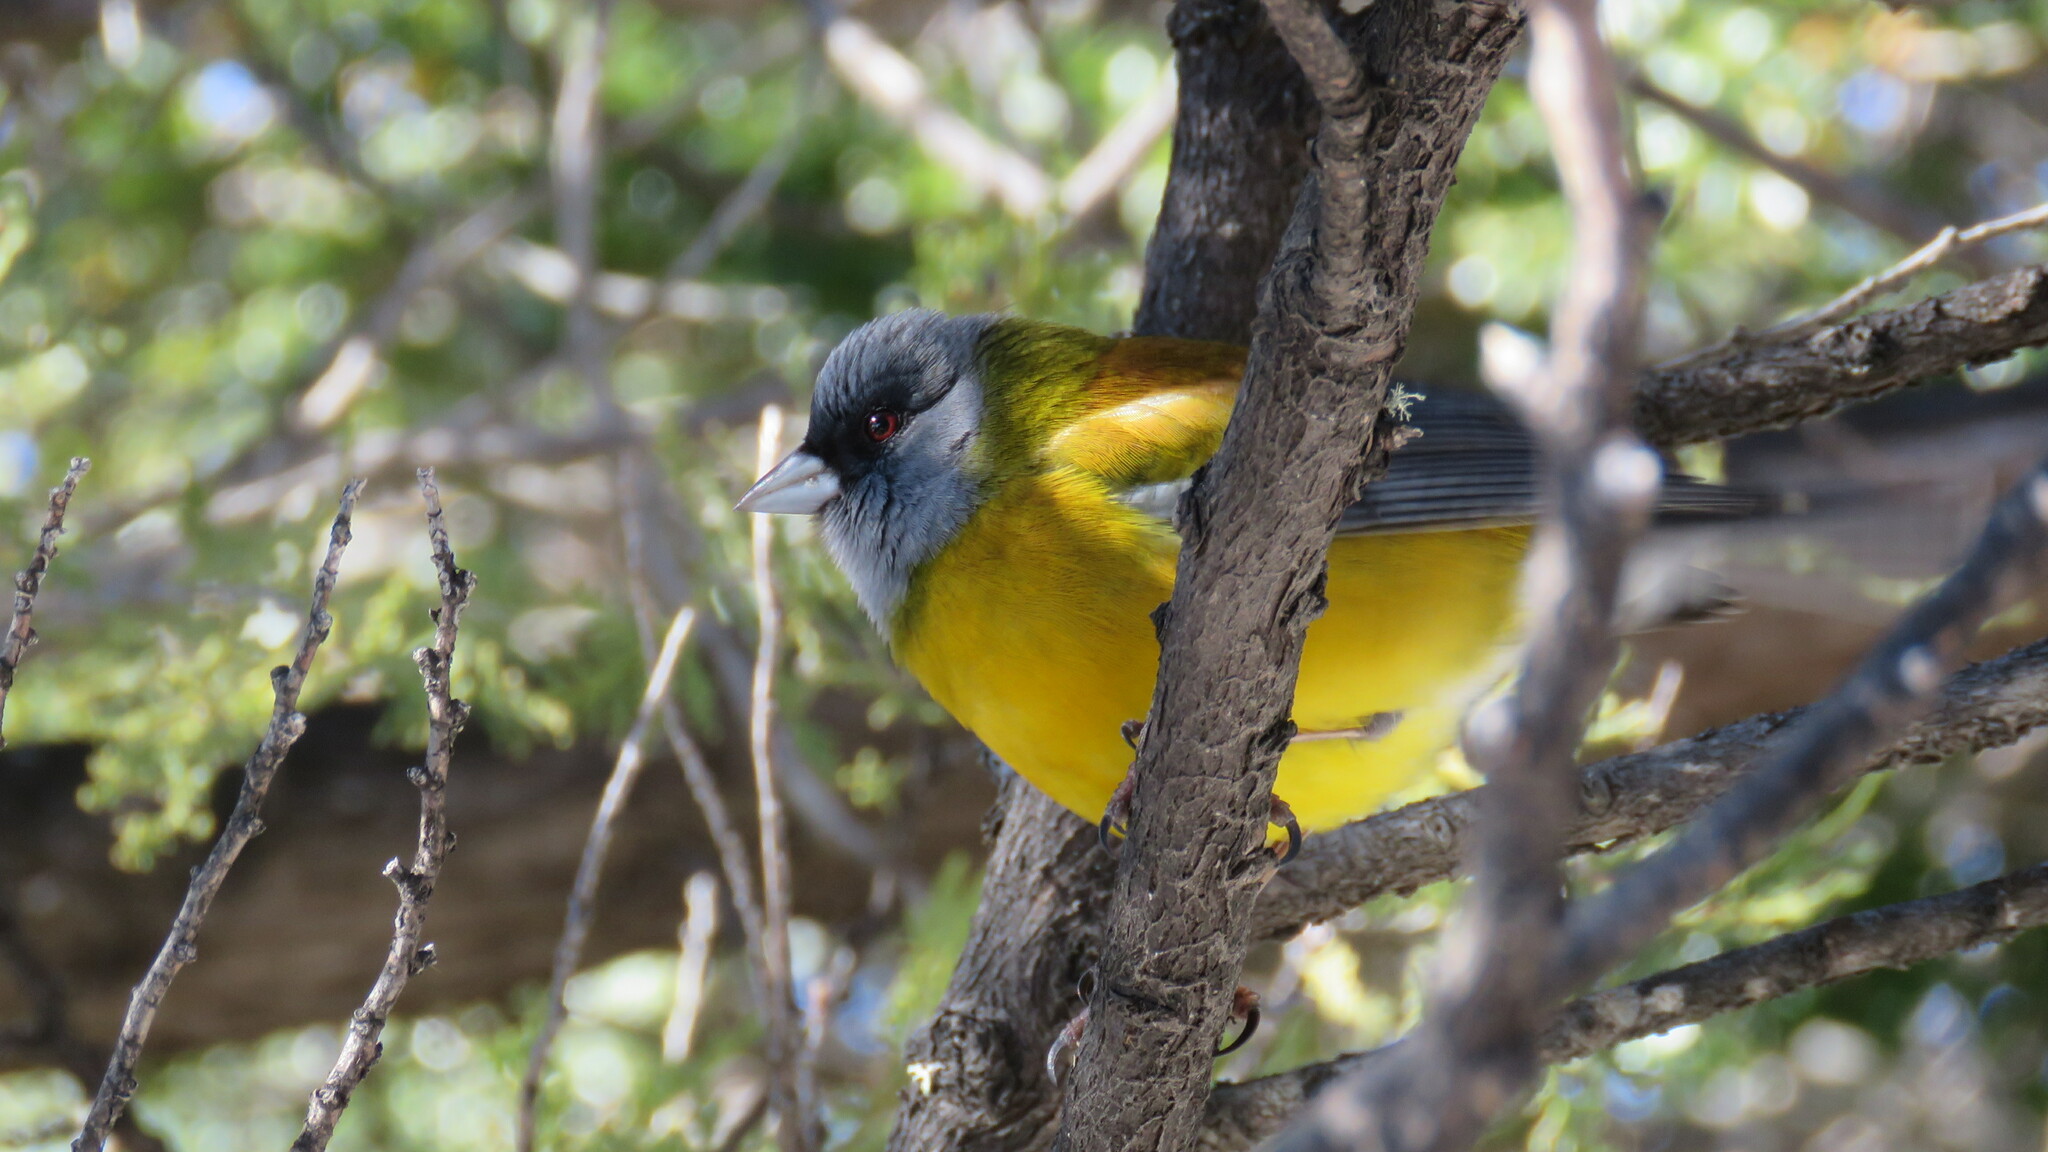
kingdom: Animalia
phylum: Chordata
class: Aves
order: Passeriformes
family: Thraupidae
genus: Phrygilus
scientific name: Phrygilus patagonicus
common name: Patagonian sierra finch
